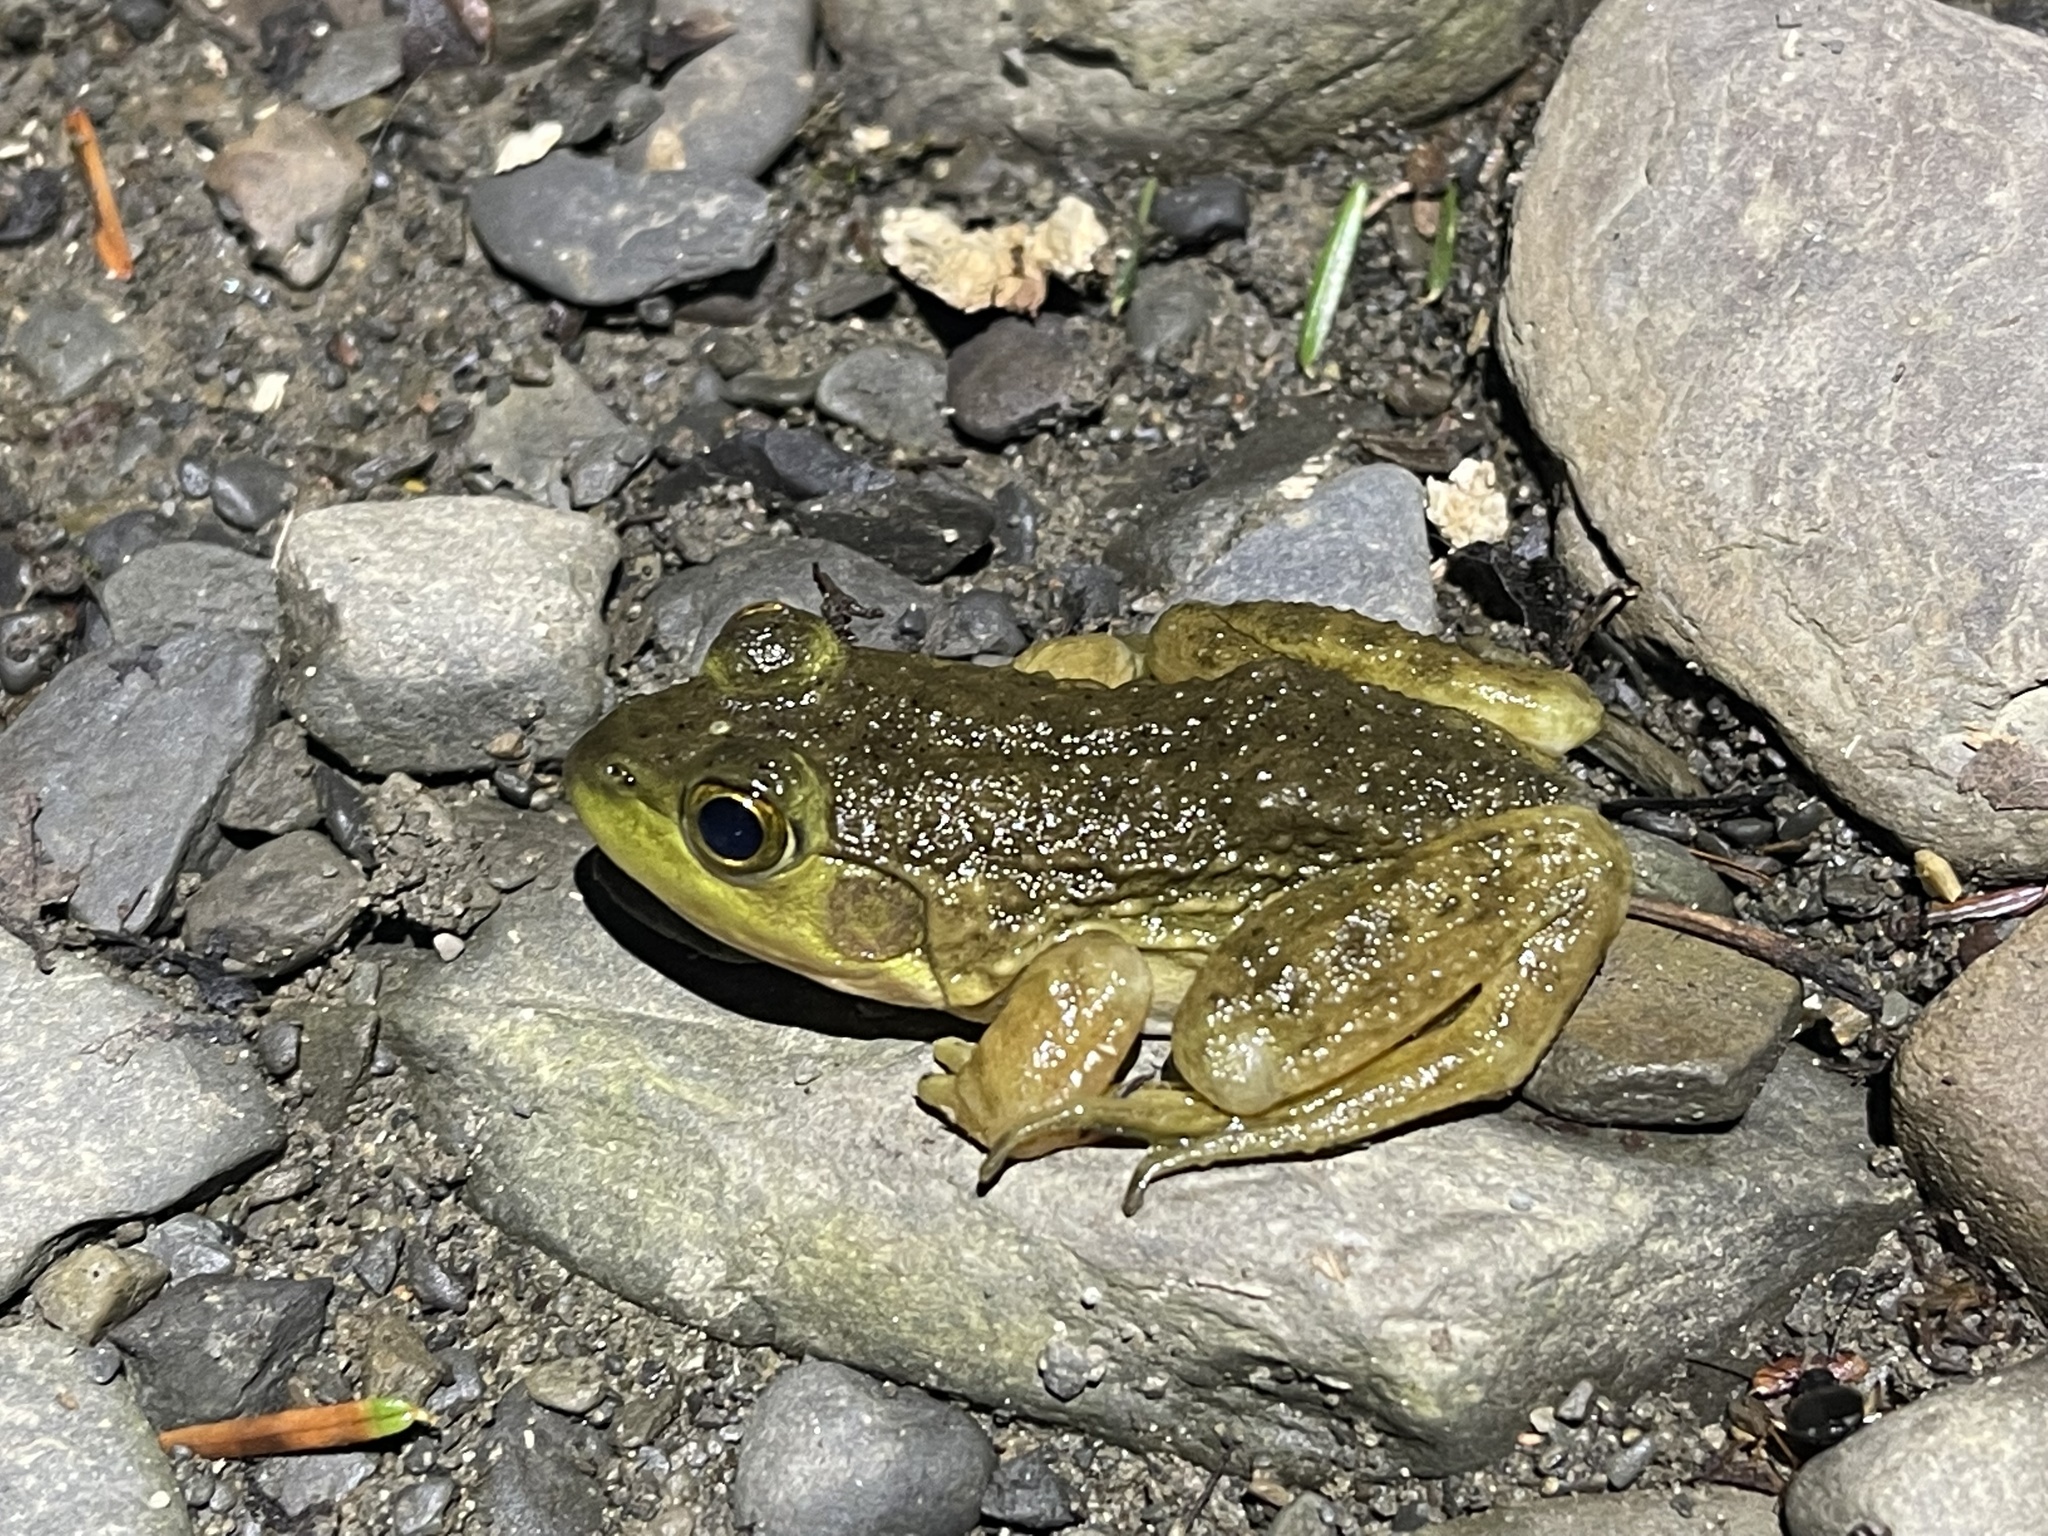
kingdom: Animalia
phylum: Chordata
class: Amphibia
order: Anura
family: Ranidae
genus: Lithobates
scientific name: Lithobates catesbeianus
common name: American bullfrog
